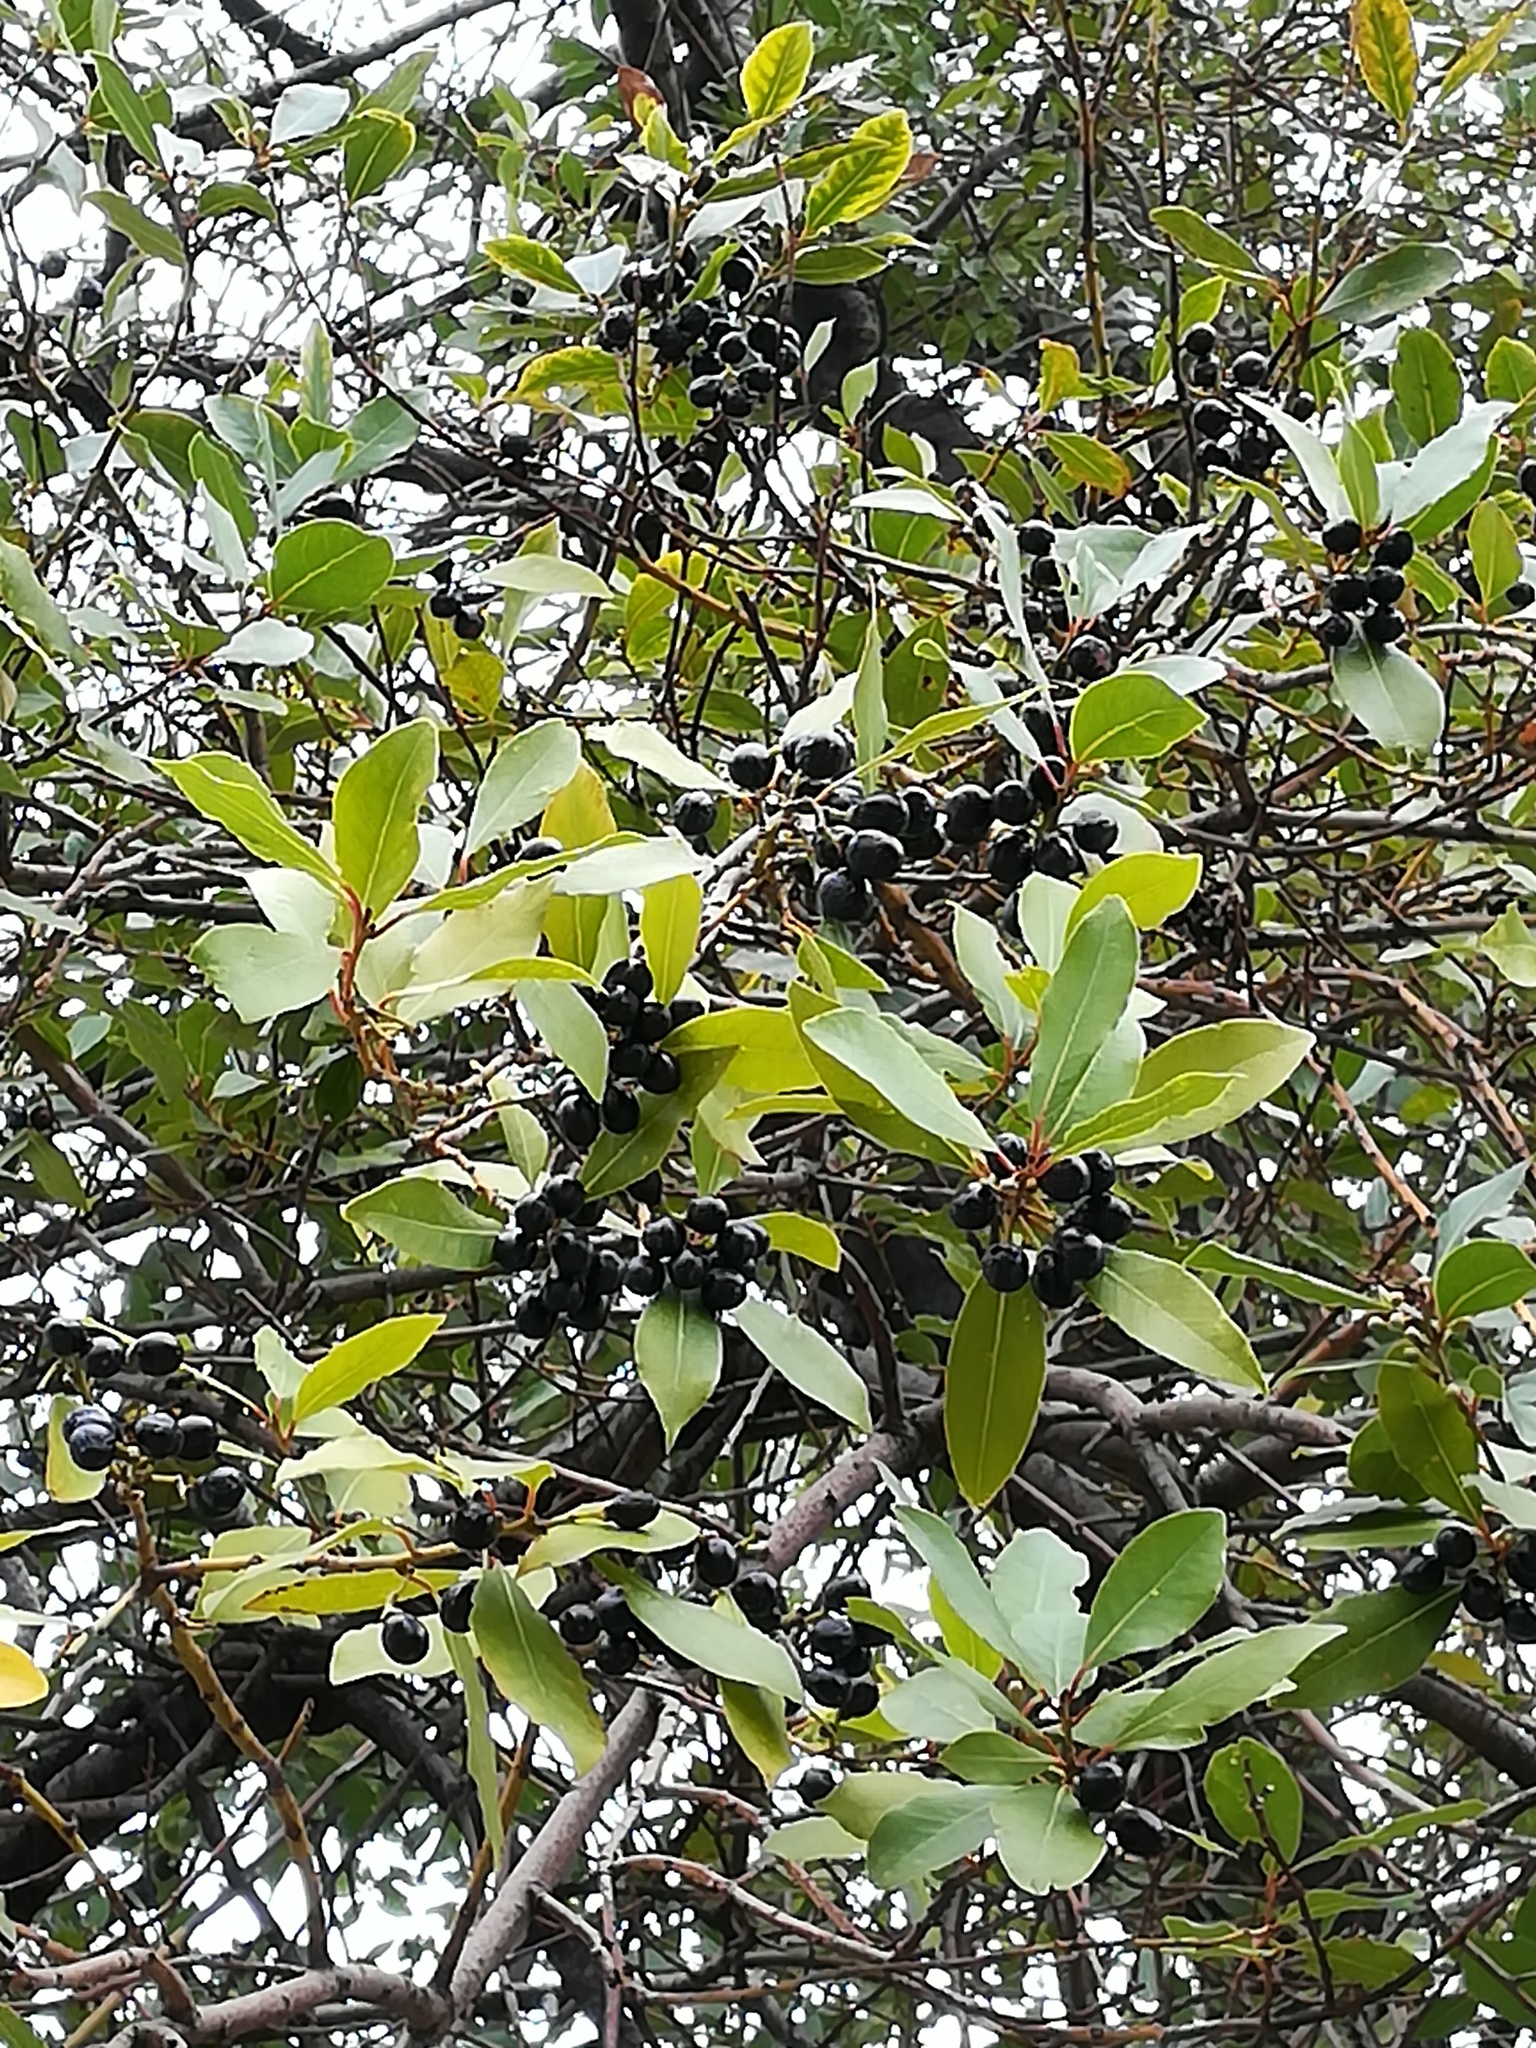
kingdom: Plantae
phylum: Tracheophyta
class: Magnoliopsida
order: Laurales
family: Lauraceae
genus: Laurus
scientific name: Laurus nobilis
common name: Bay
